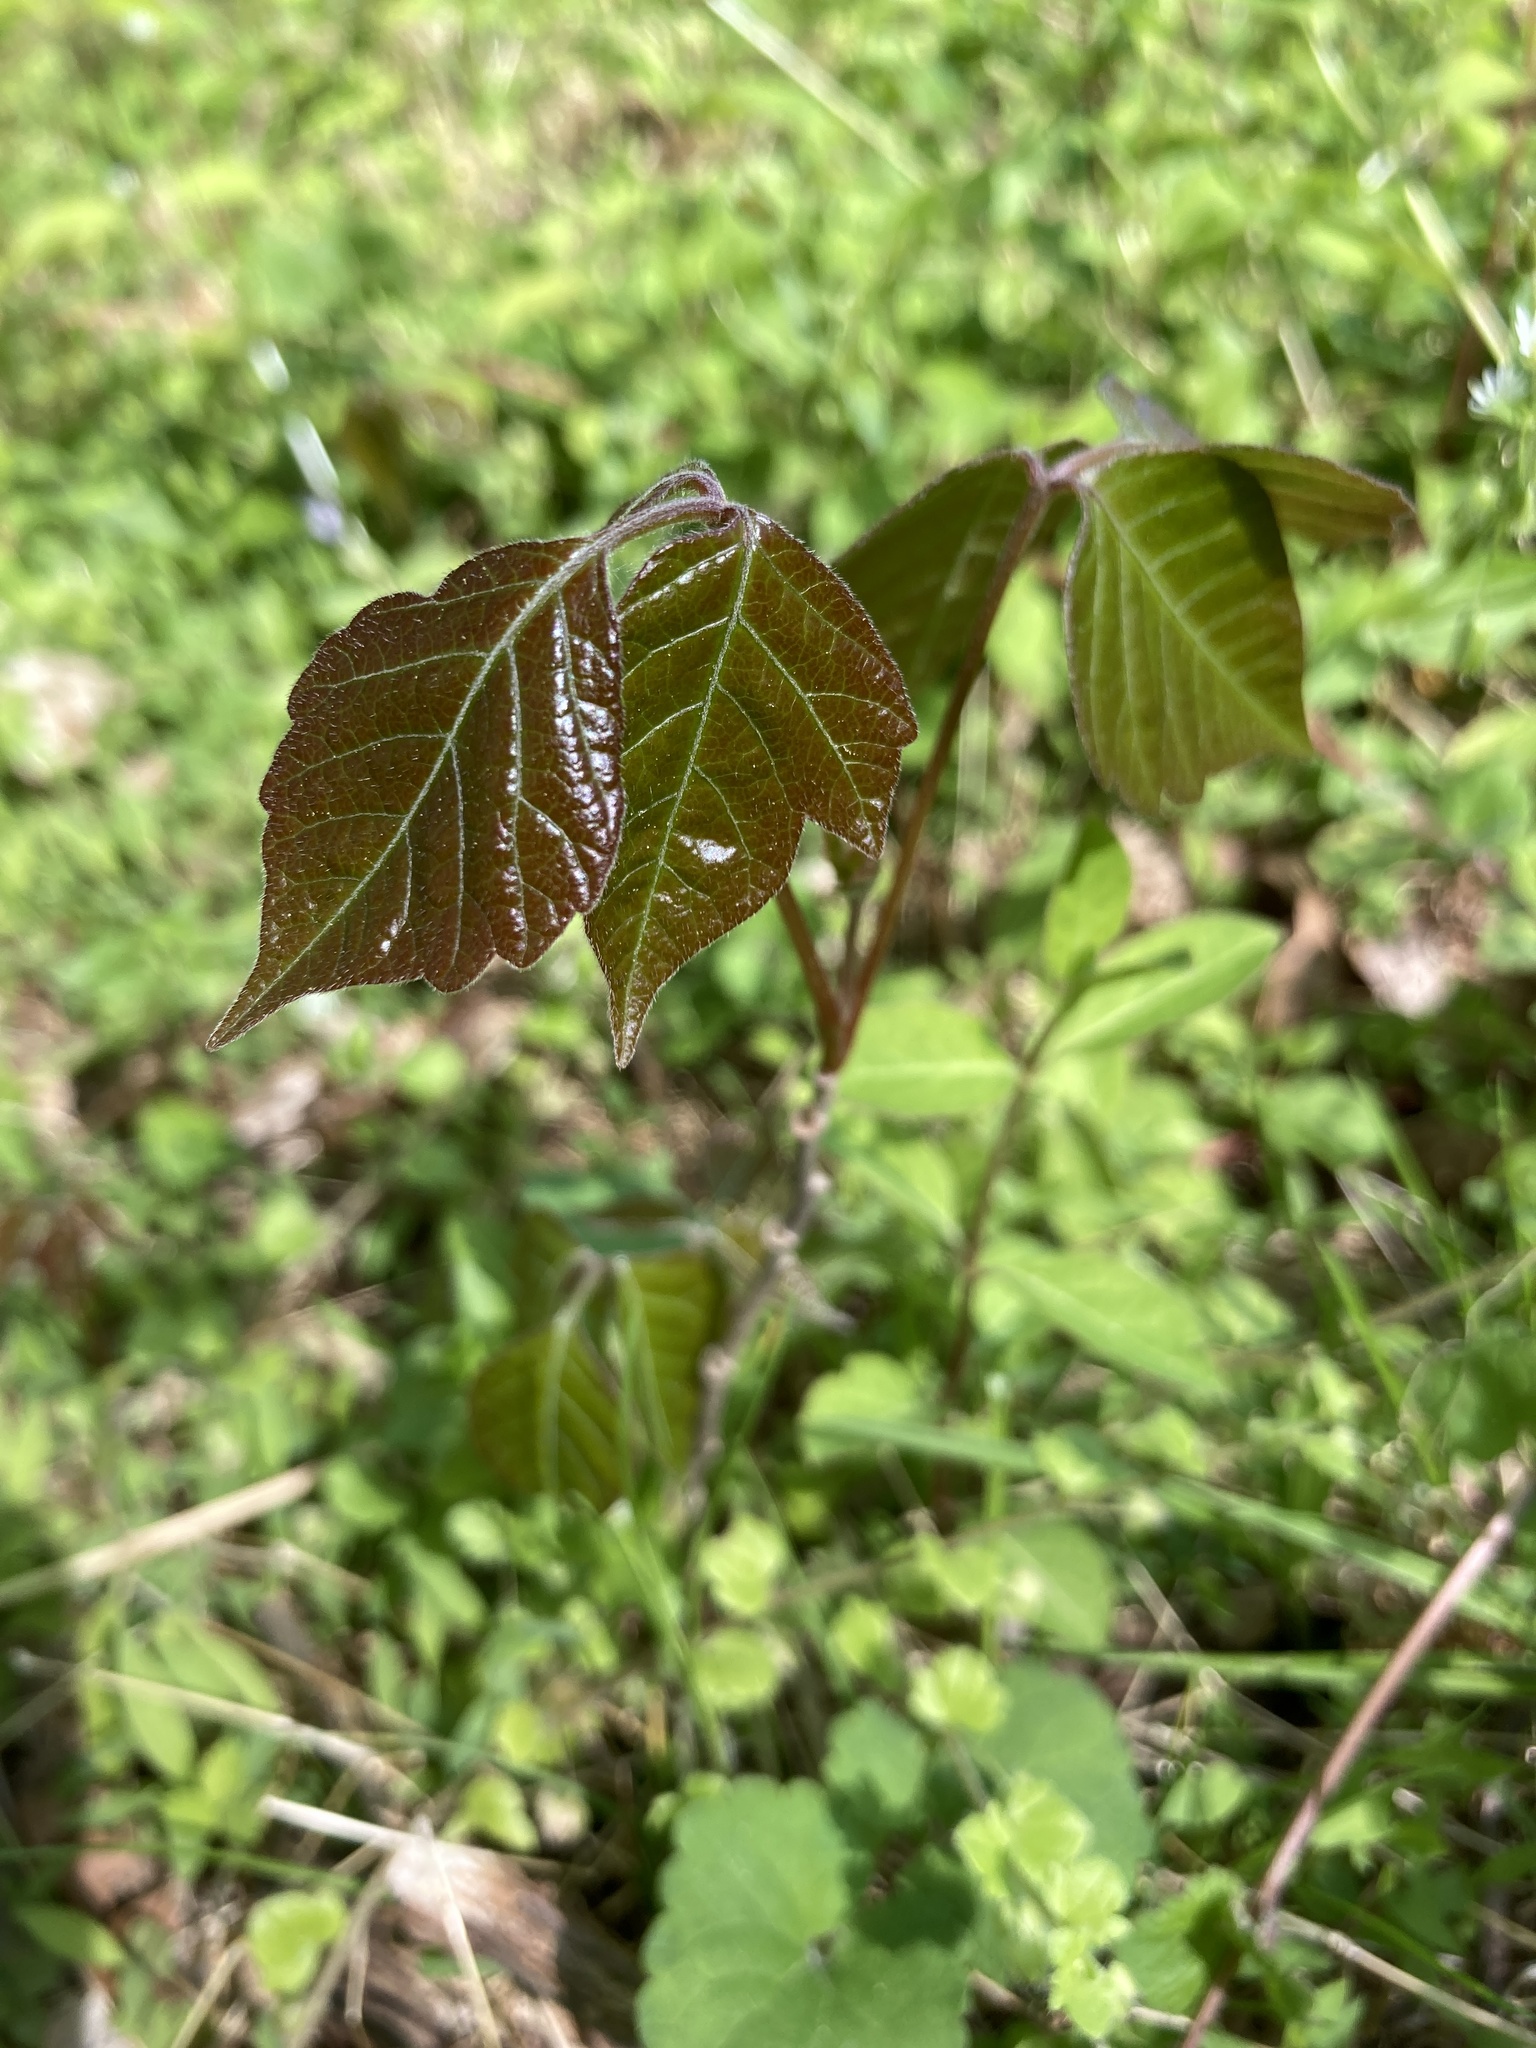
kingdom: Plantae
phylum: Tracheophyta
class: Magnoliopsida
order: Sapindales
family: Anacardiaceae
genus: Toxicodendron
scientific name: Toxicodendron radicans
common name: Poison ivy
